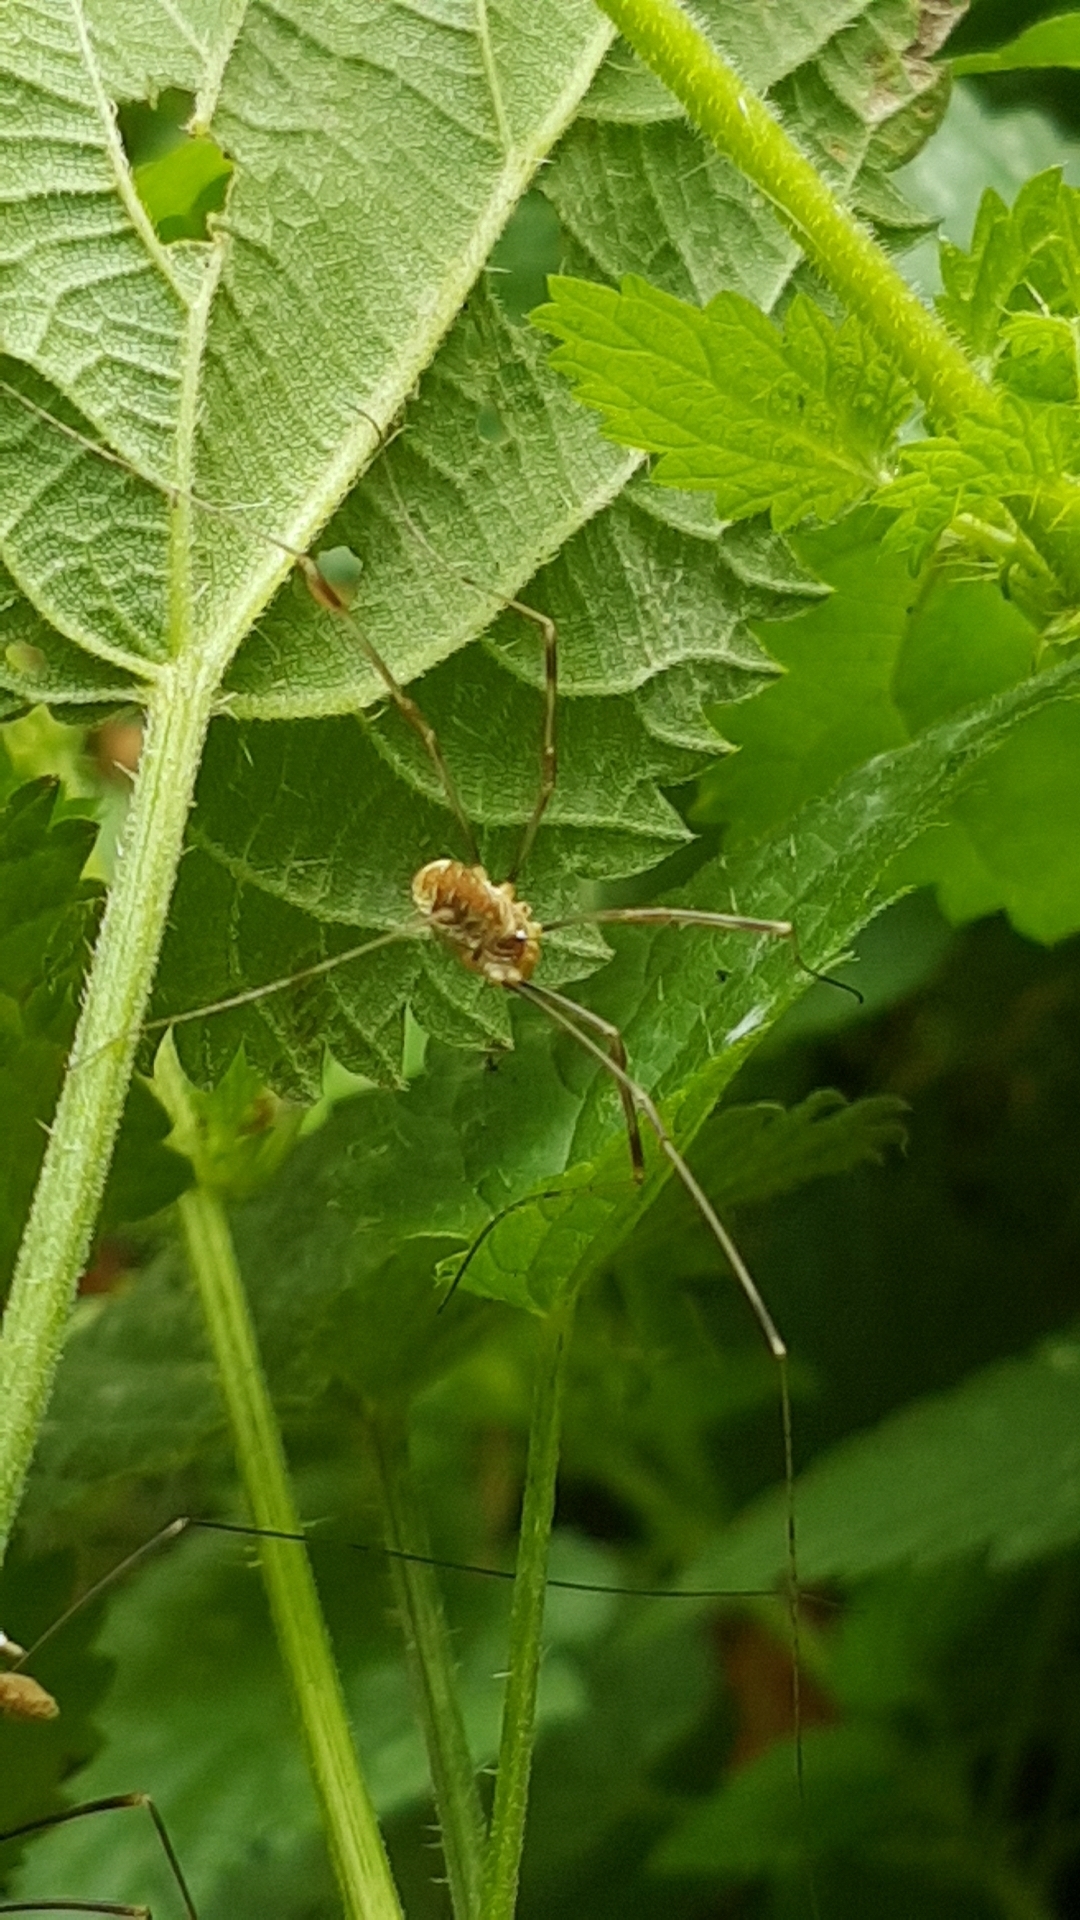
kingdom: Animalia
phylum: Arthropoda
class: Arachnida
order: Opiliones
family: Phalangiidae
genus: Opilio
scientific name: Opilio canestrinii
